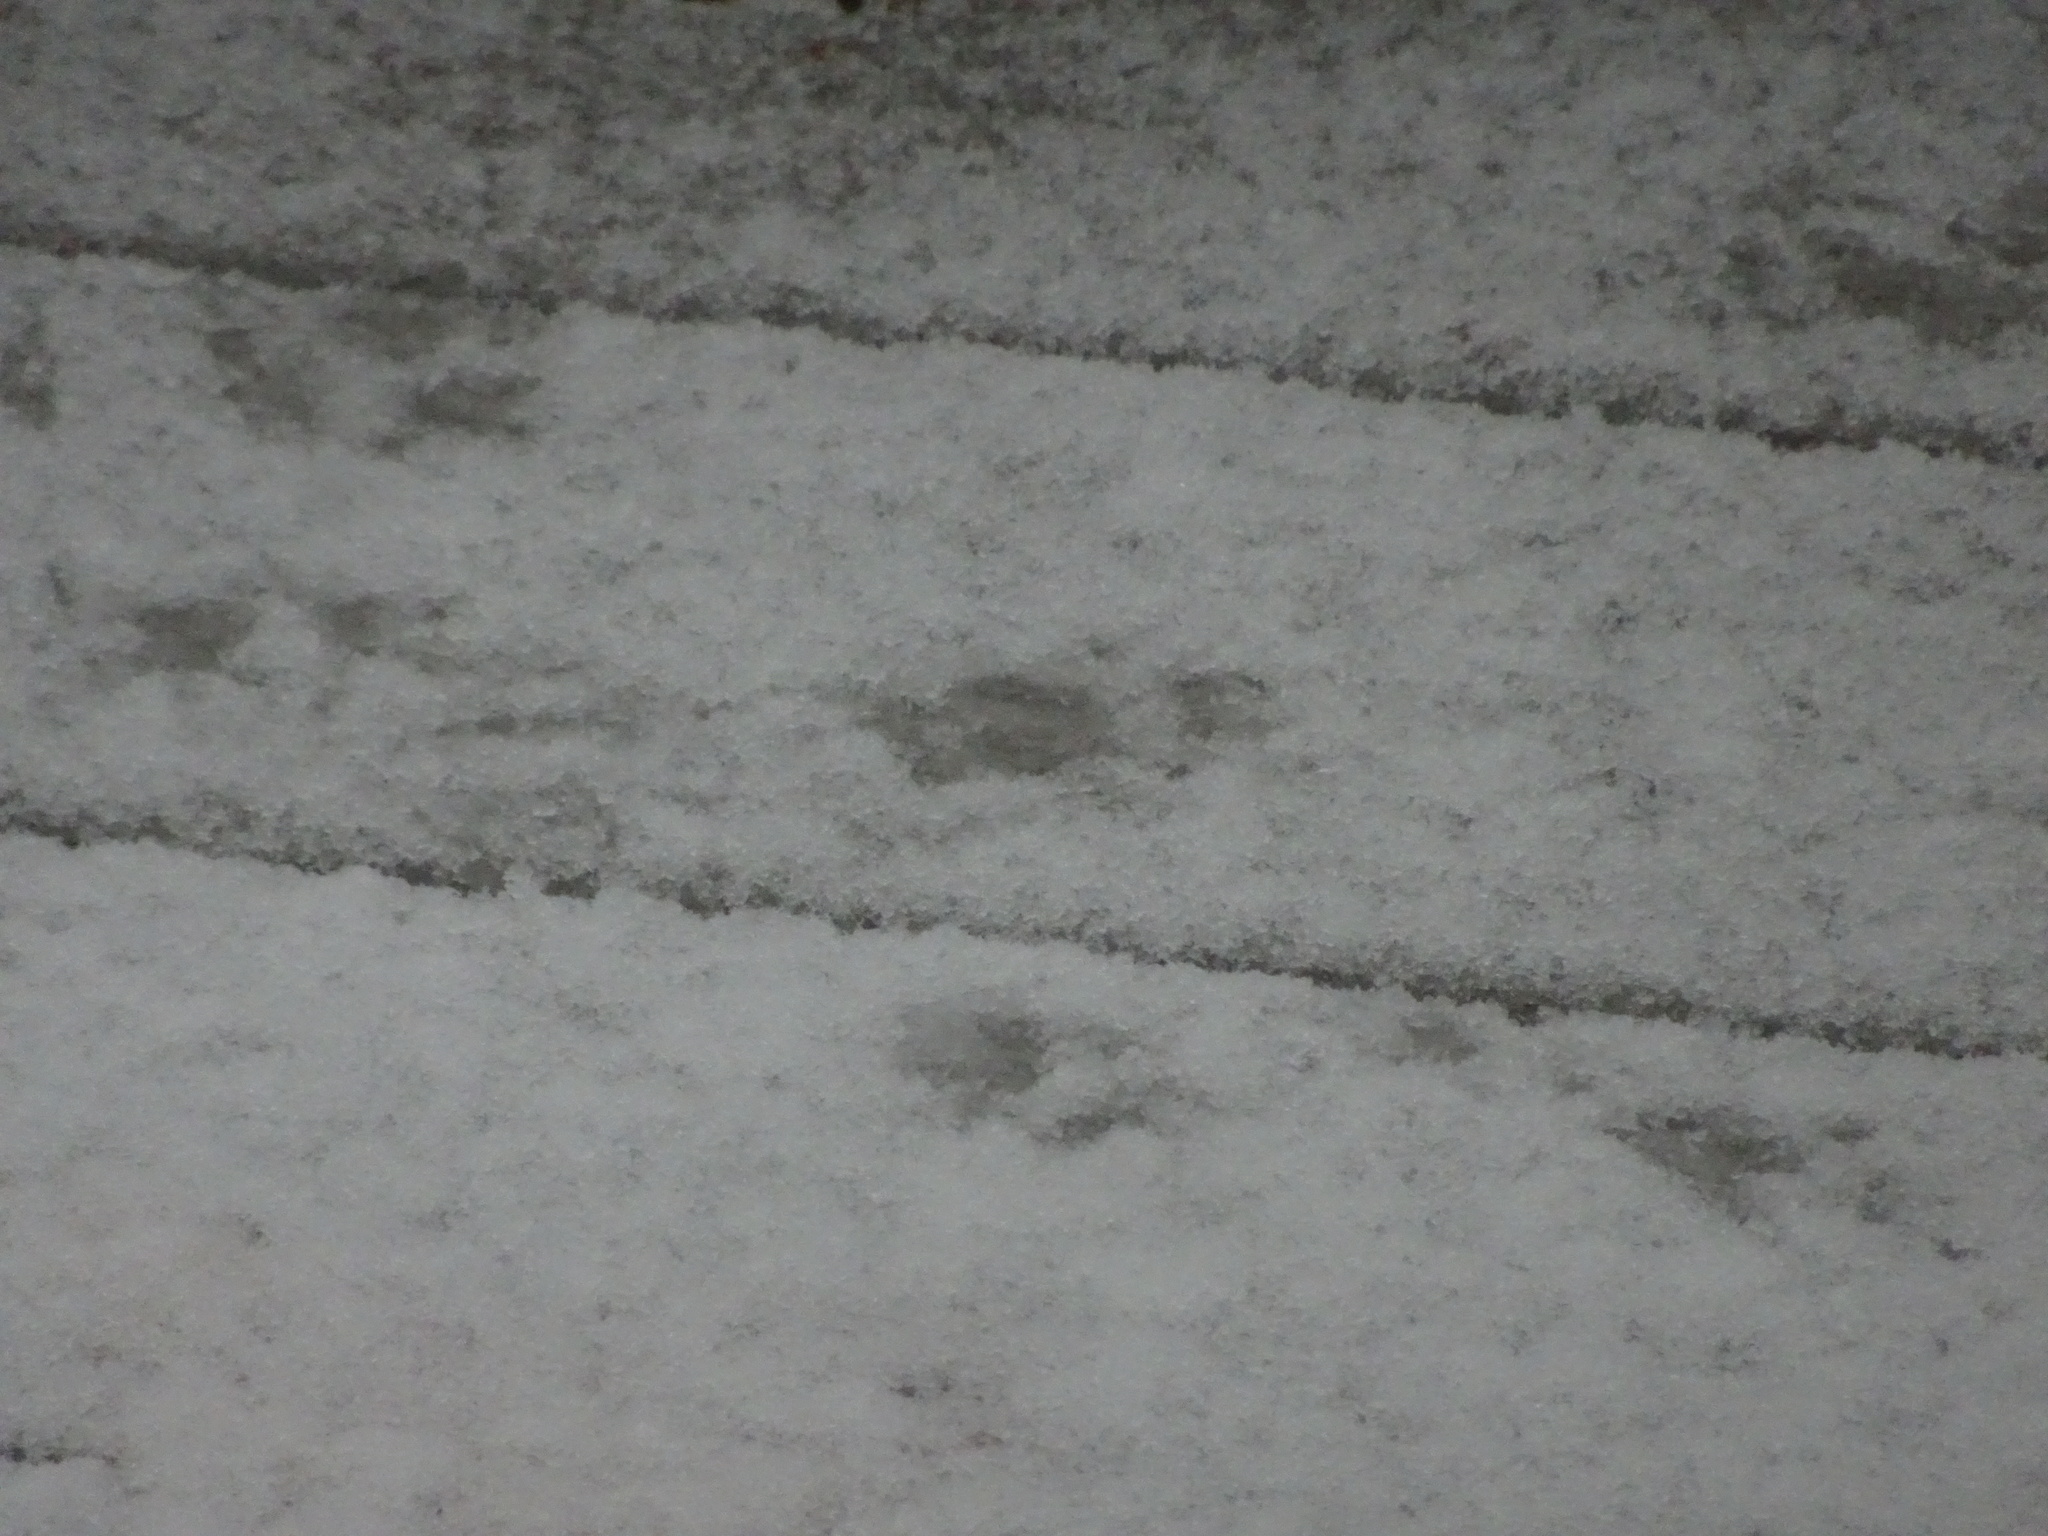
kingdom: Animalia
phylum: Chordata
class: Mammalia
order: Rodentia
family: Sciuridae
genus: Sciurus
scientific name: Sciurus carolinensis
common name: Eastern gray squirrel
